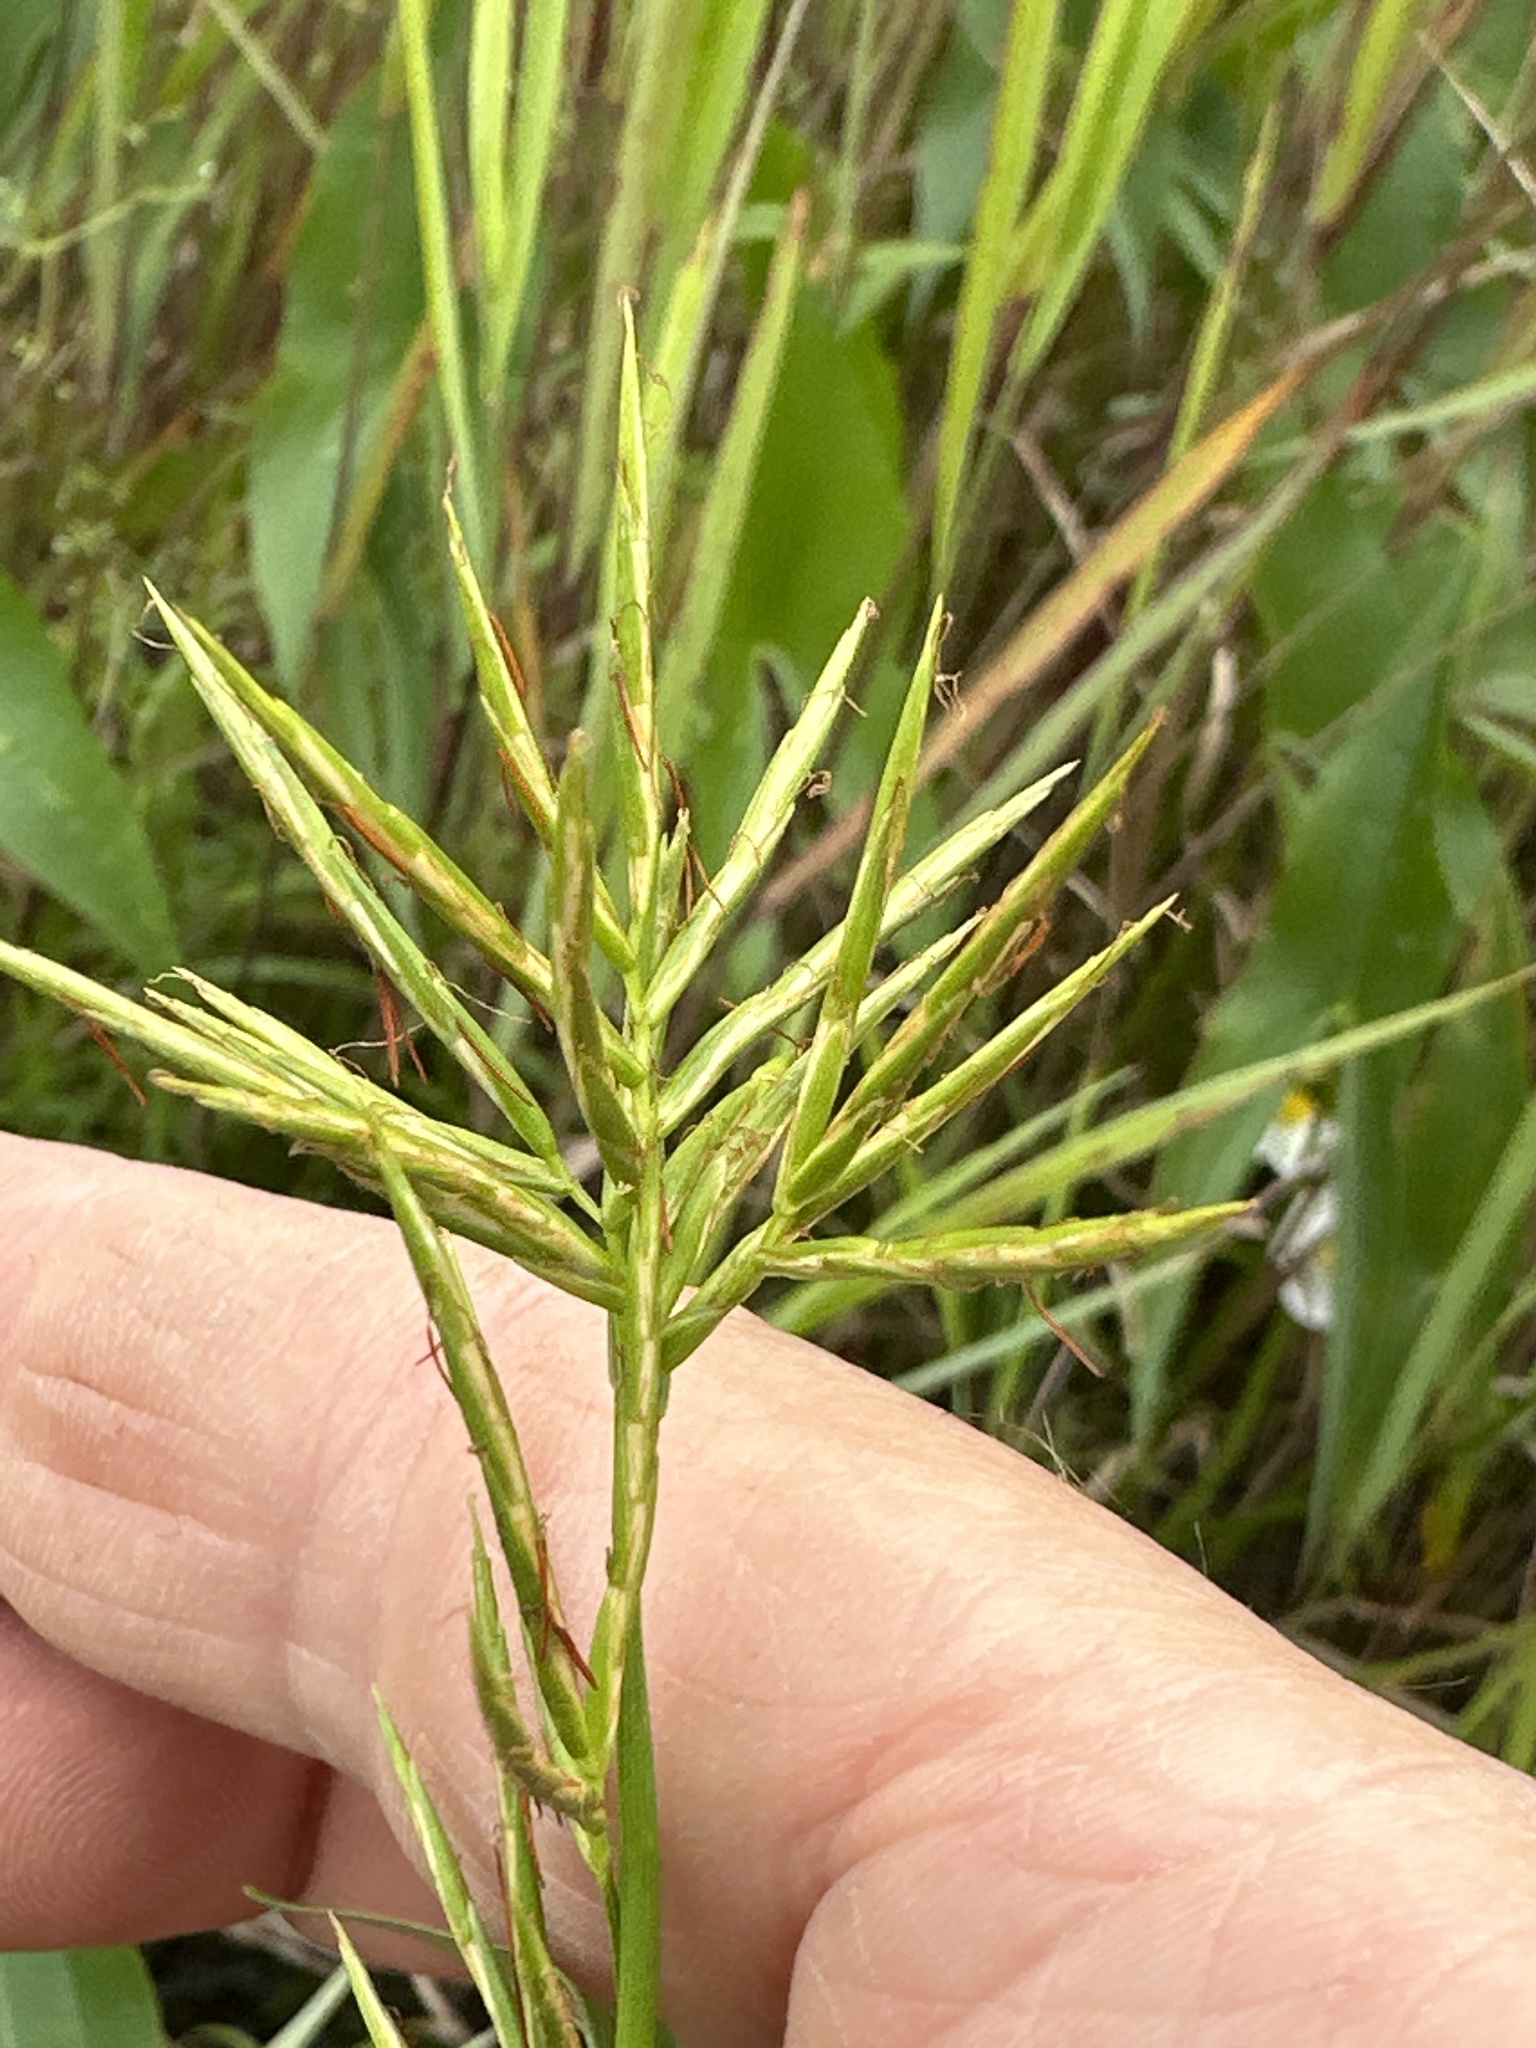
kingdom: Plantae
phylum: Tracheophyta
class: Liliopsida
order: Poales
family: Cyperaceae
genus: Dulichium
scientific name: Dulichium arundinaceum
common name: Three-way sedge
